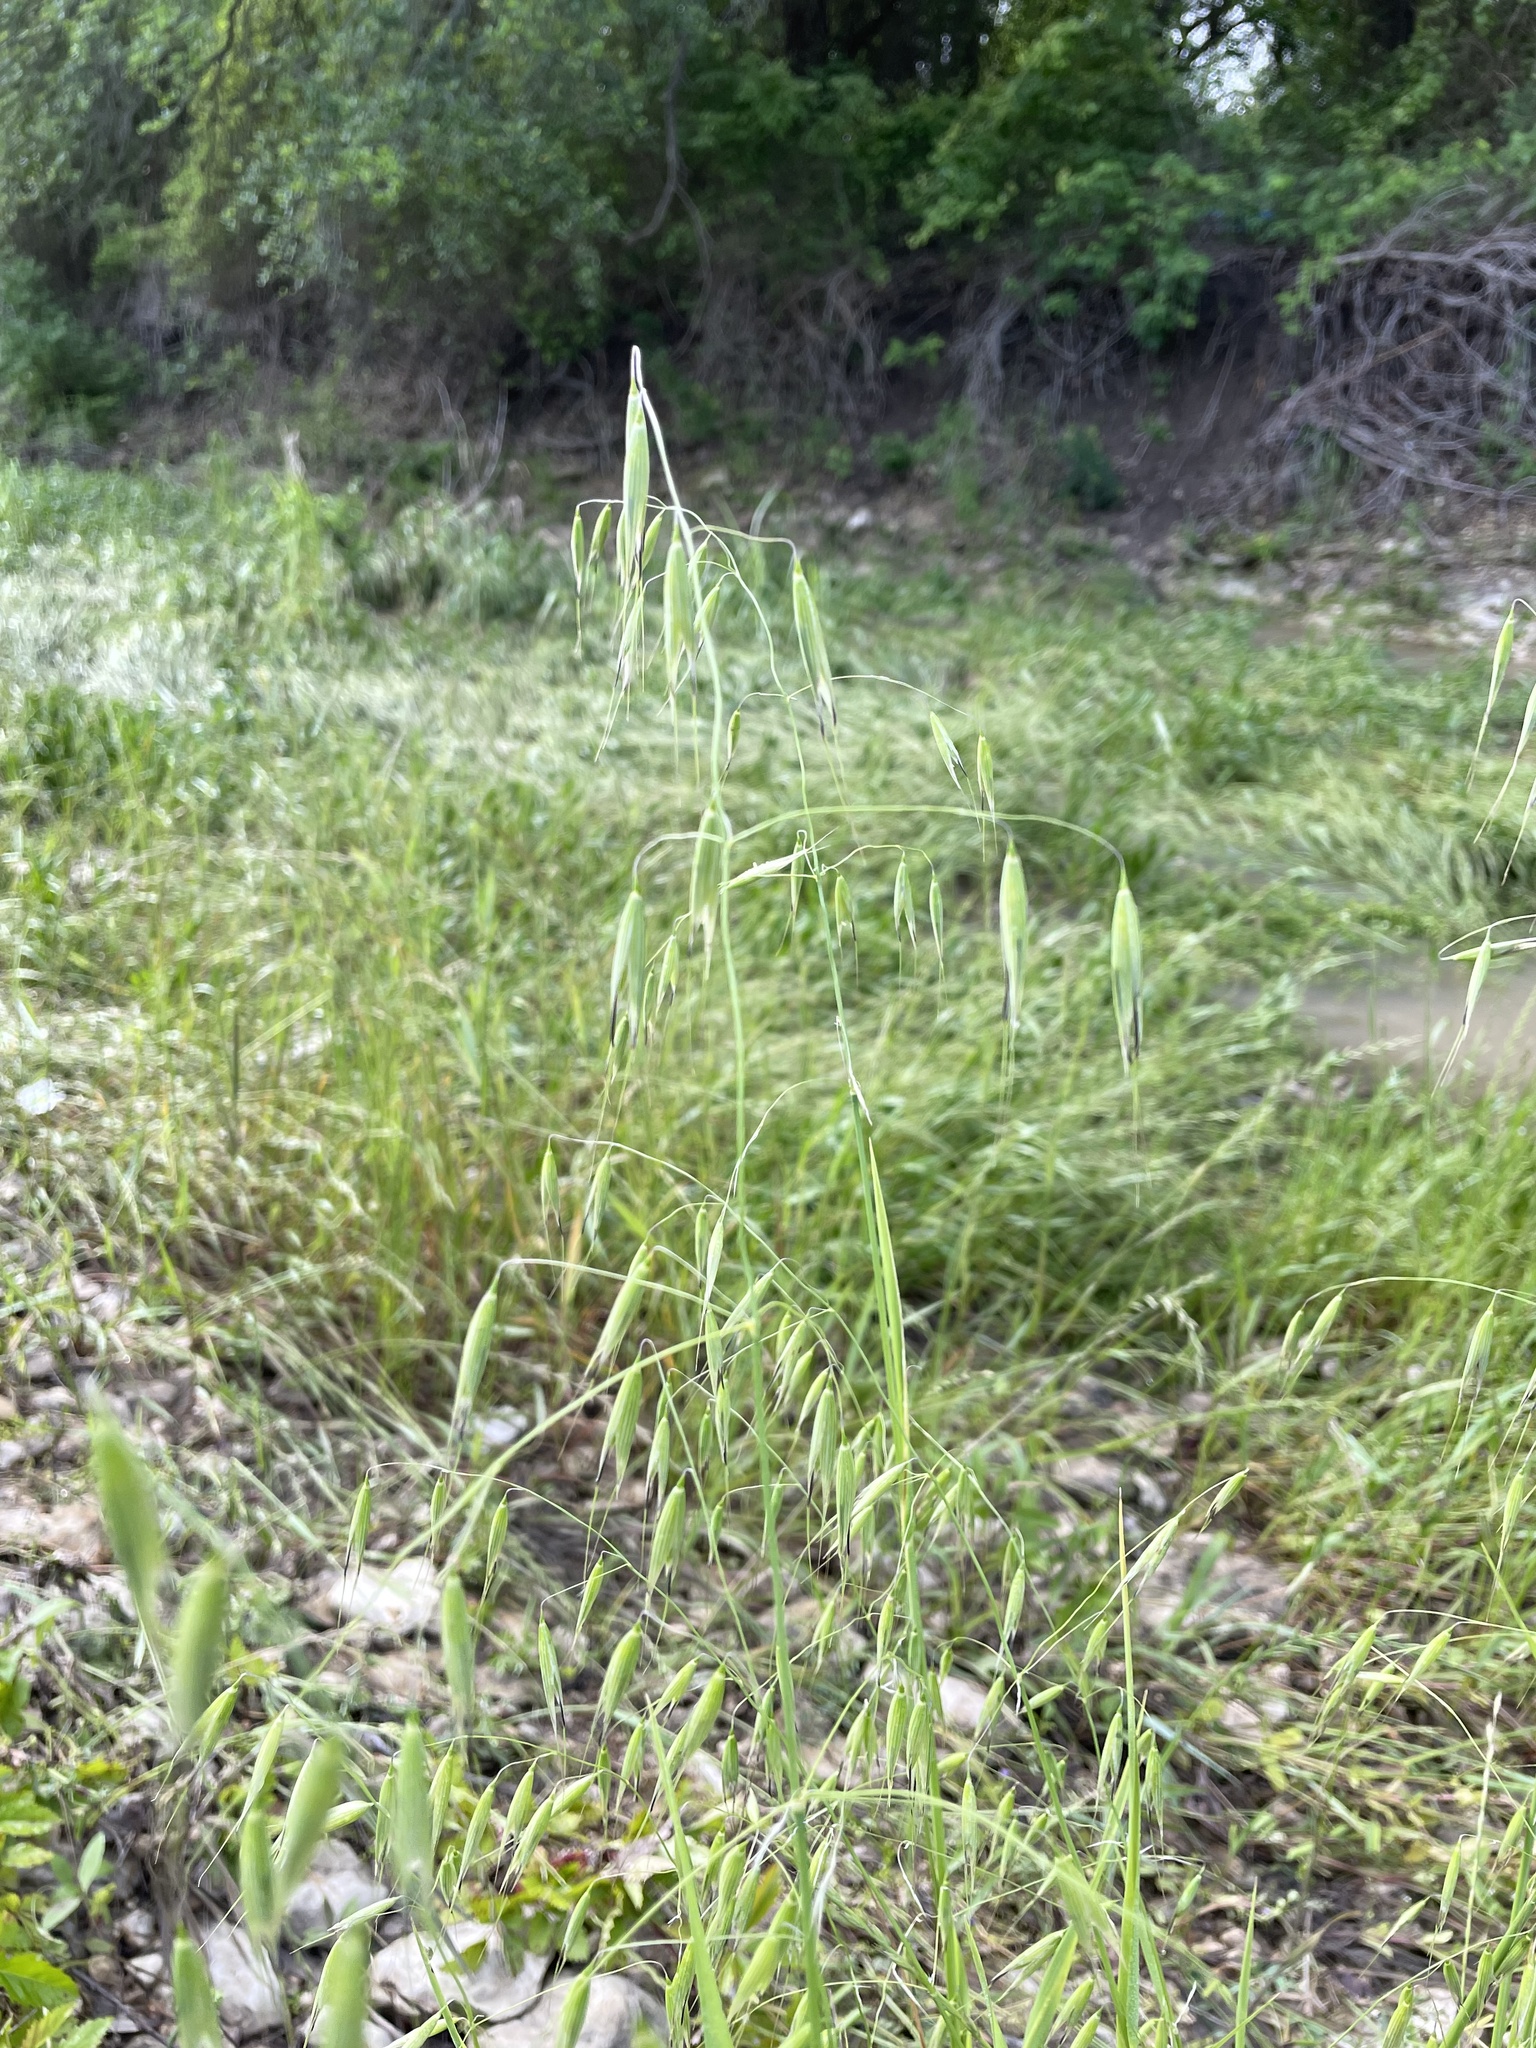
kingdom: Plantae
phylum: Tracheophyta
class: Liliopsida
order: Poales
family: Poaceae
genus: Avena
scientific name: Avena fatua
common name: Wild oat
